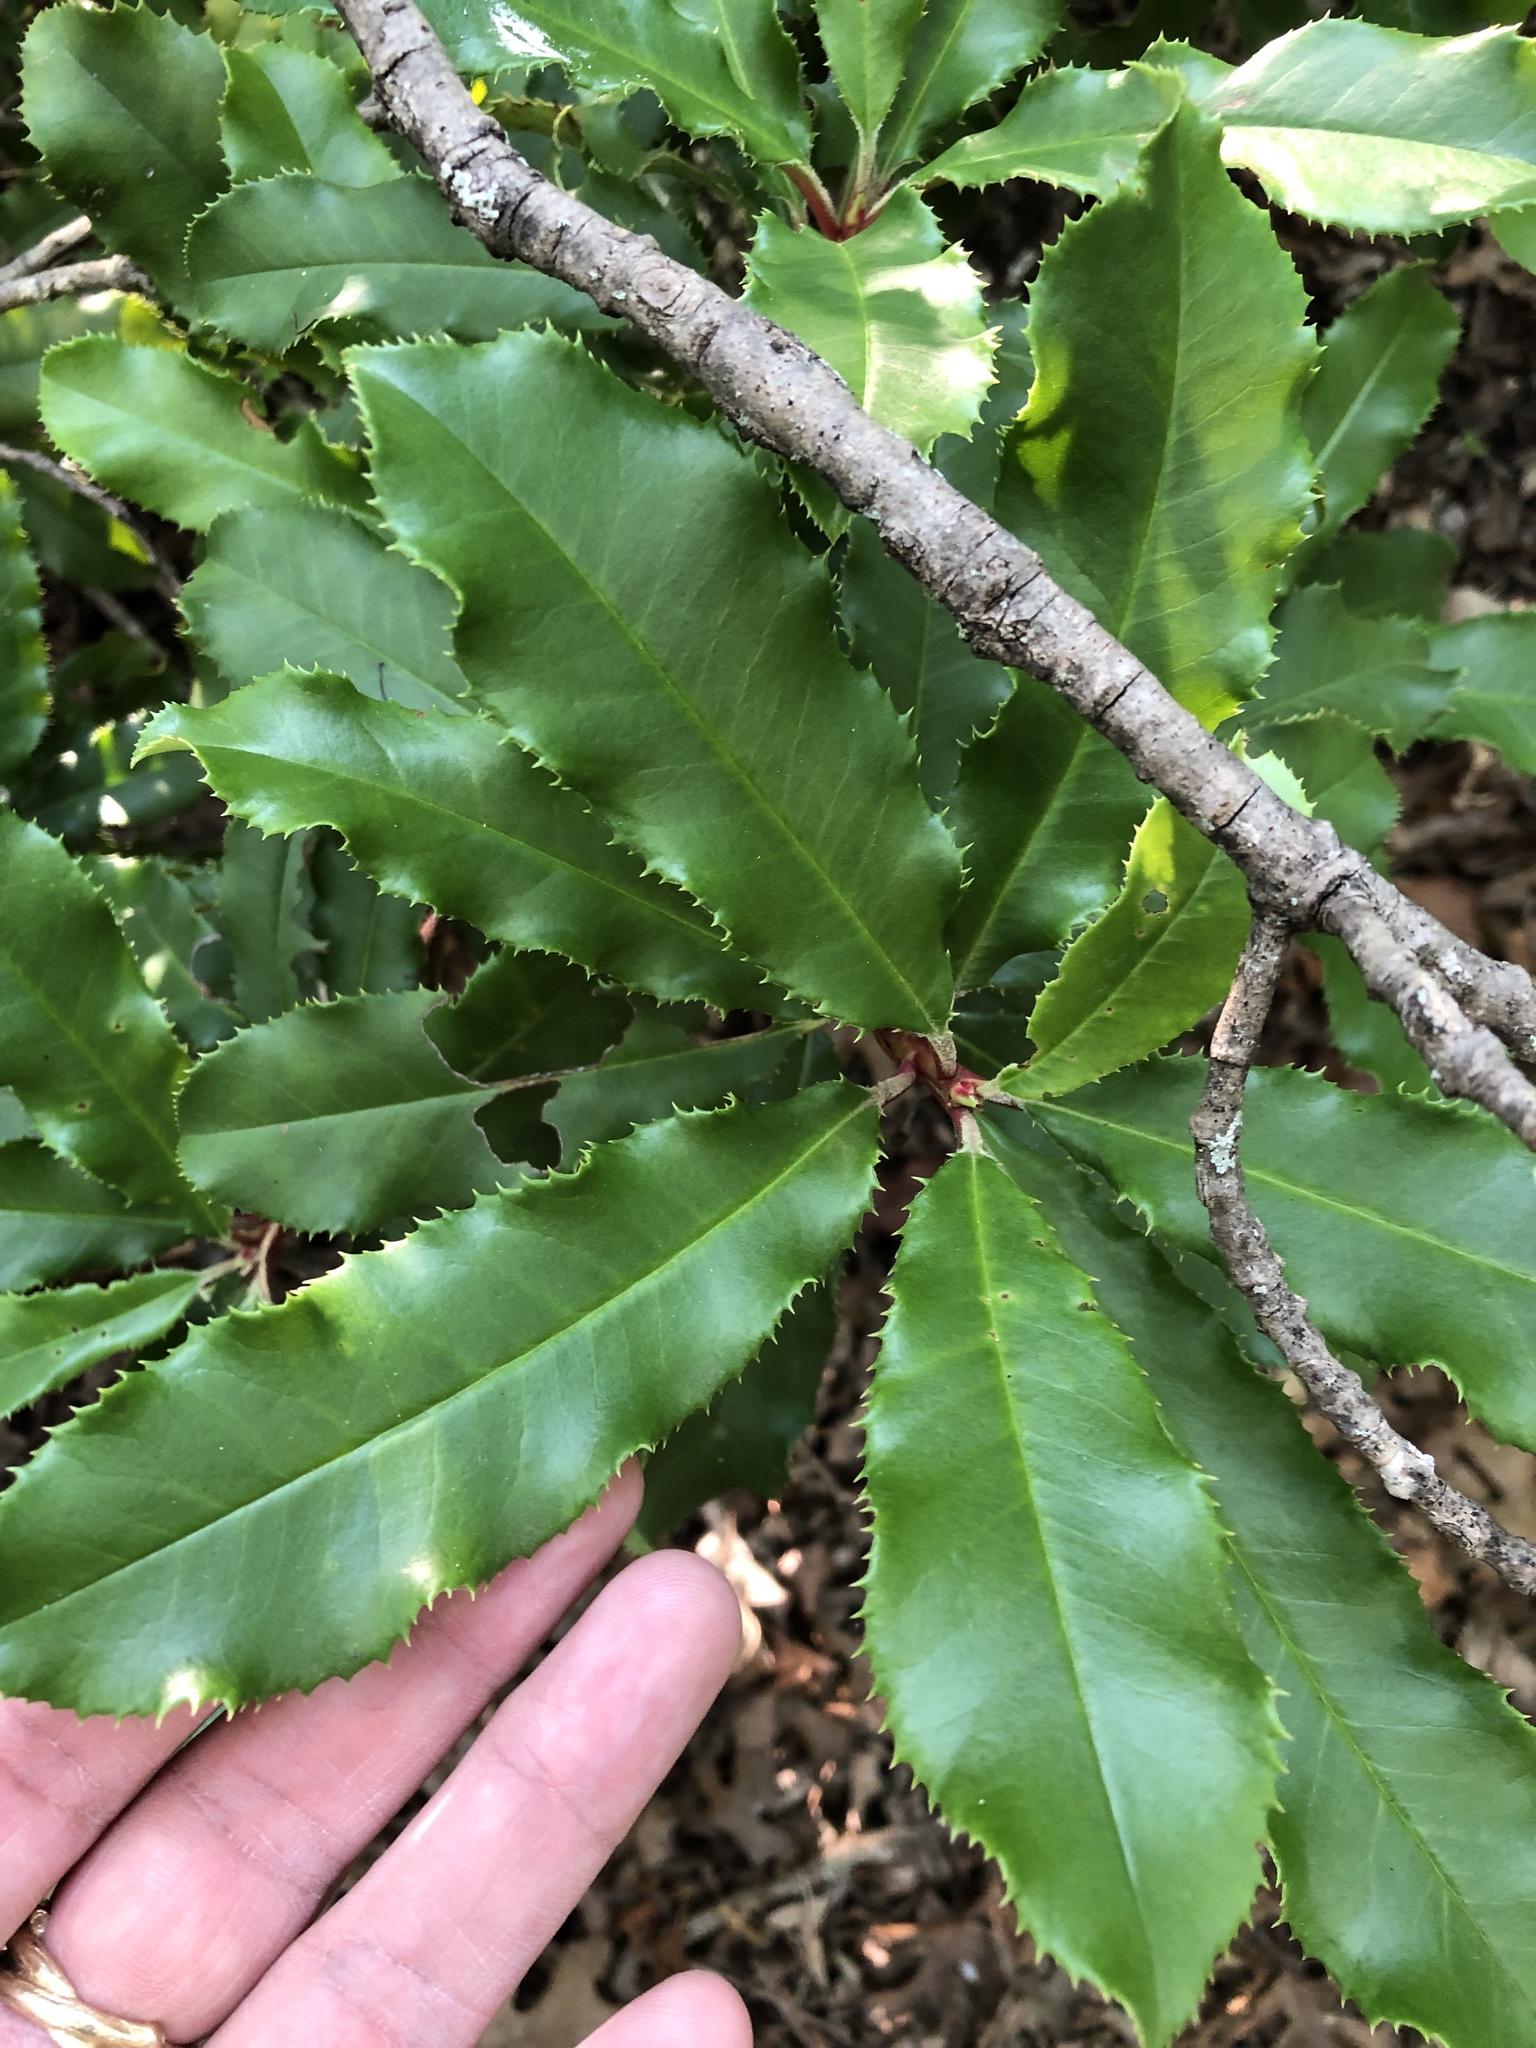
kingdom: Plantae
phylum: Tracheophyta
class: Magnoliopsida
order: Rosales
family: Rosaceae
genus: Photinia
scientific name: Photinia serratifolia
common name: Taiwanese photinia
